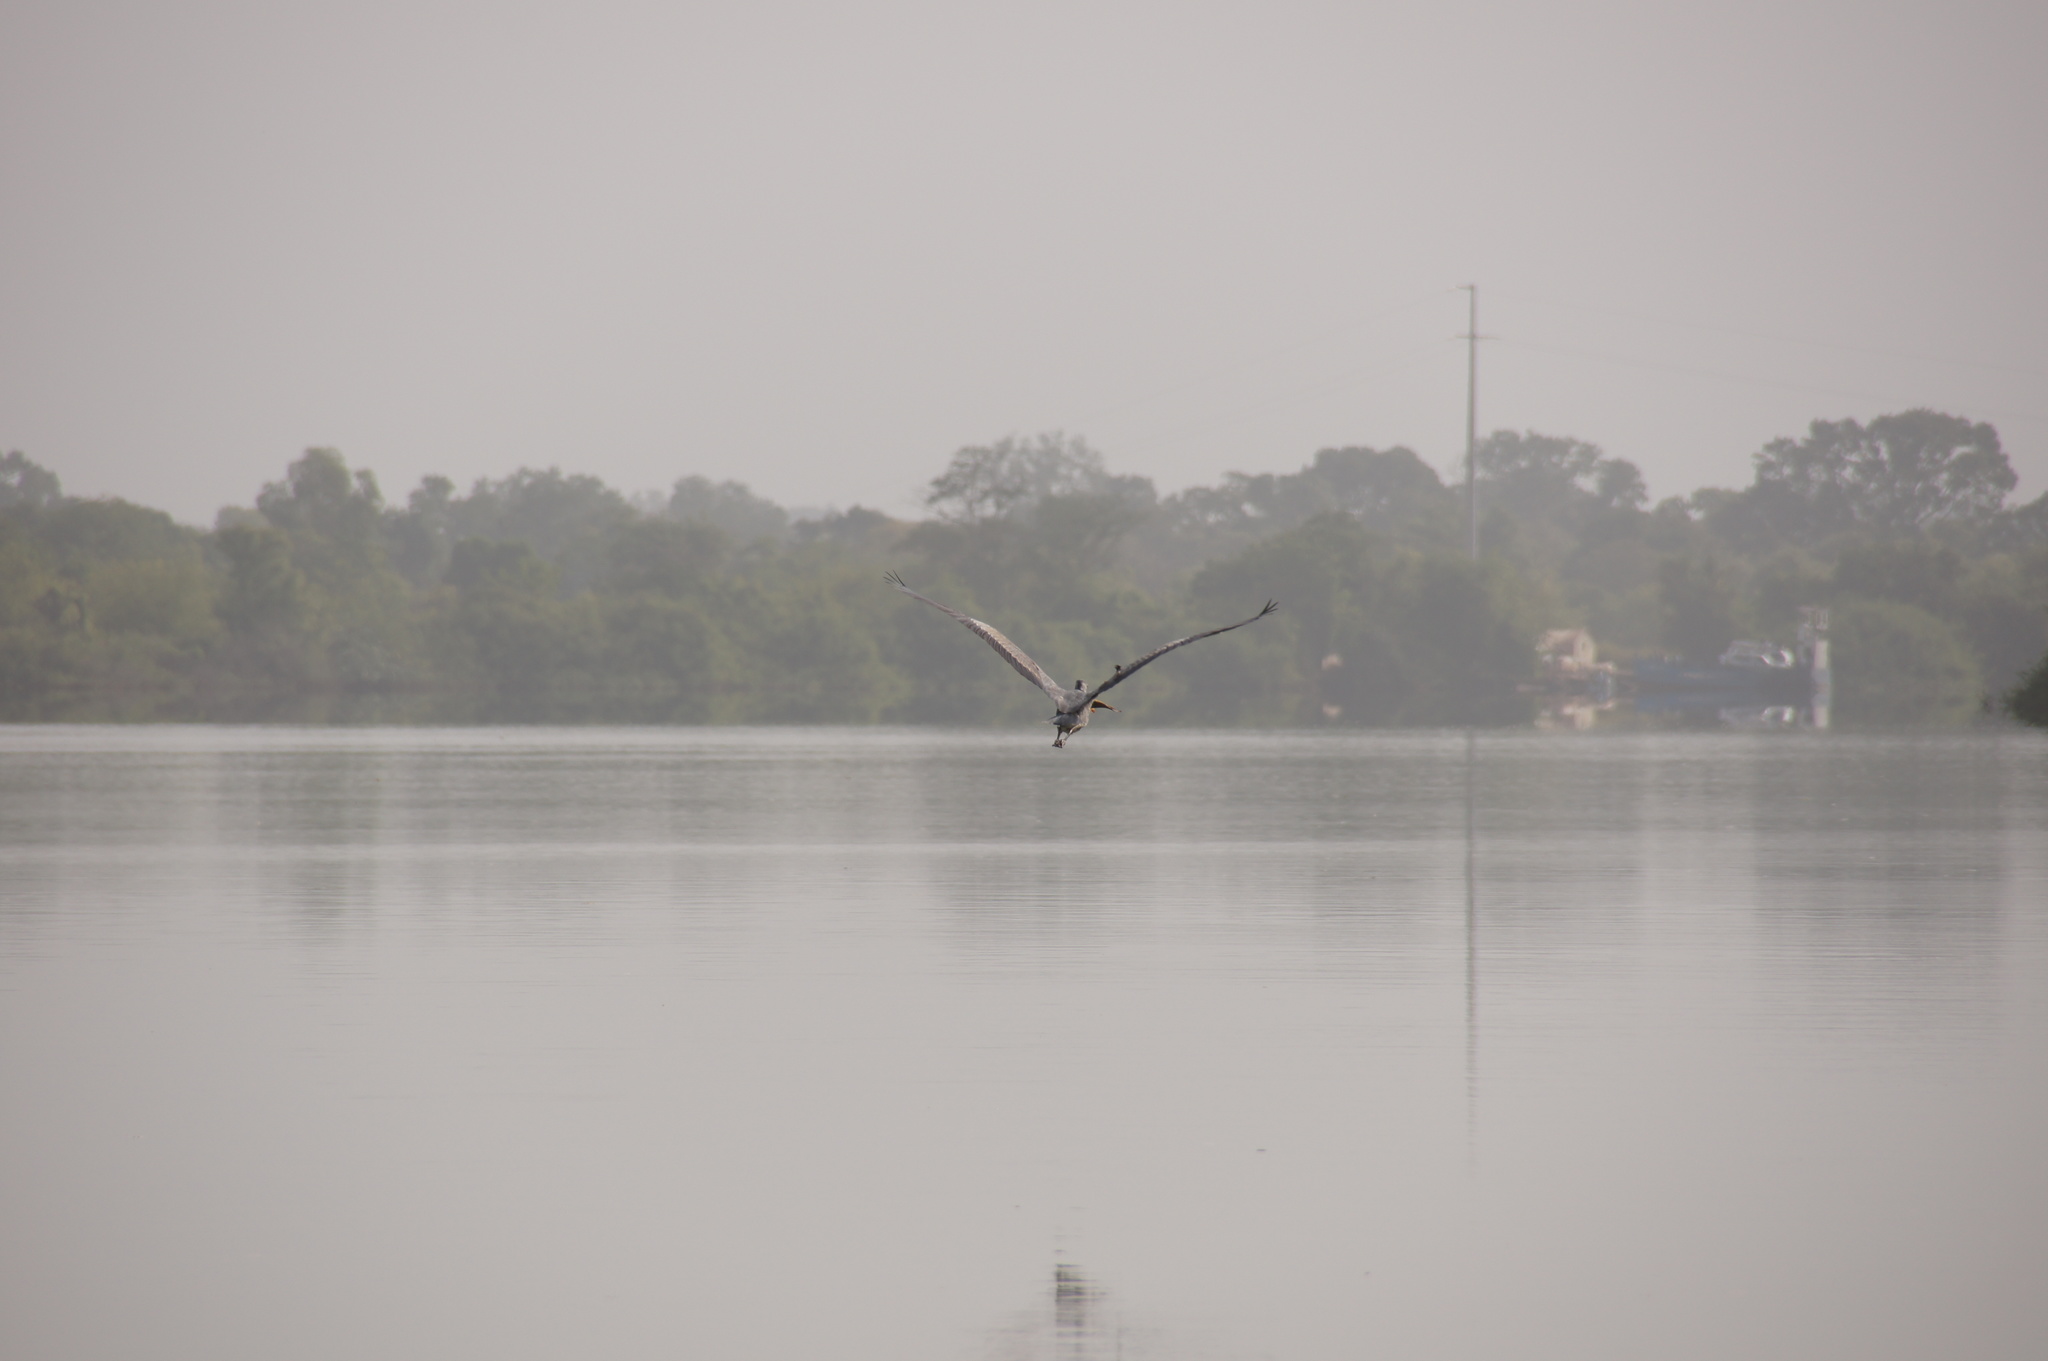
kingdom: Animalia
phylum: Chordata
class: Aves
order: Pelecaniformes
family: Ardeidae
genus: Ardea
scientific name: Ardea cinerea
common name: Grey heron
